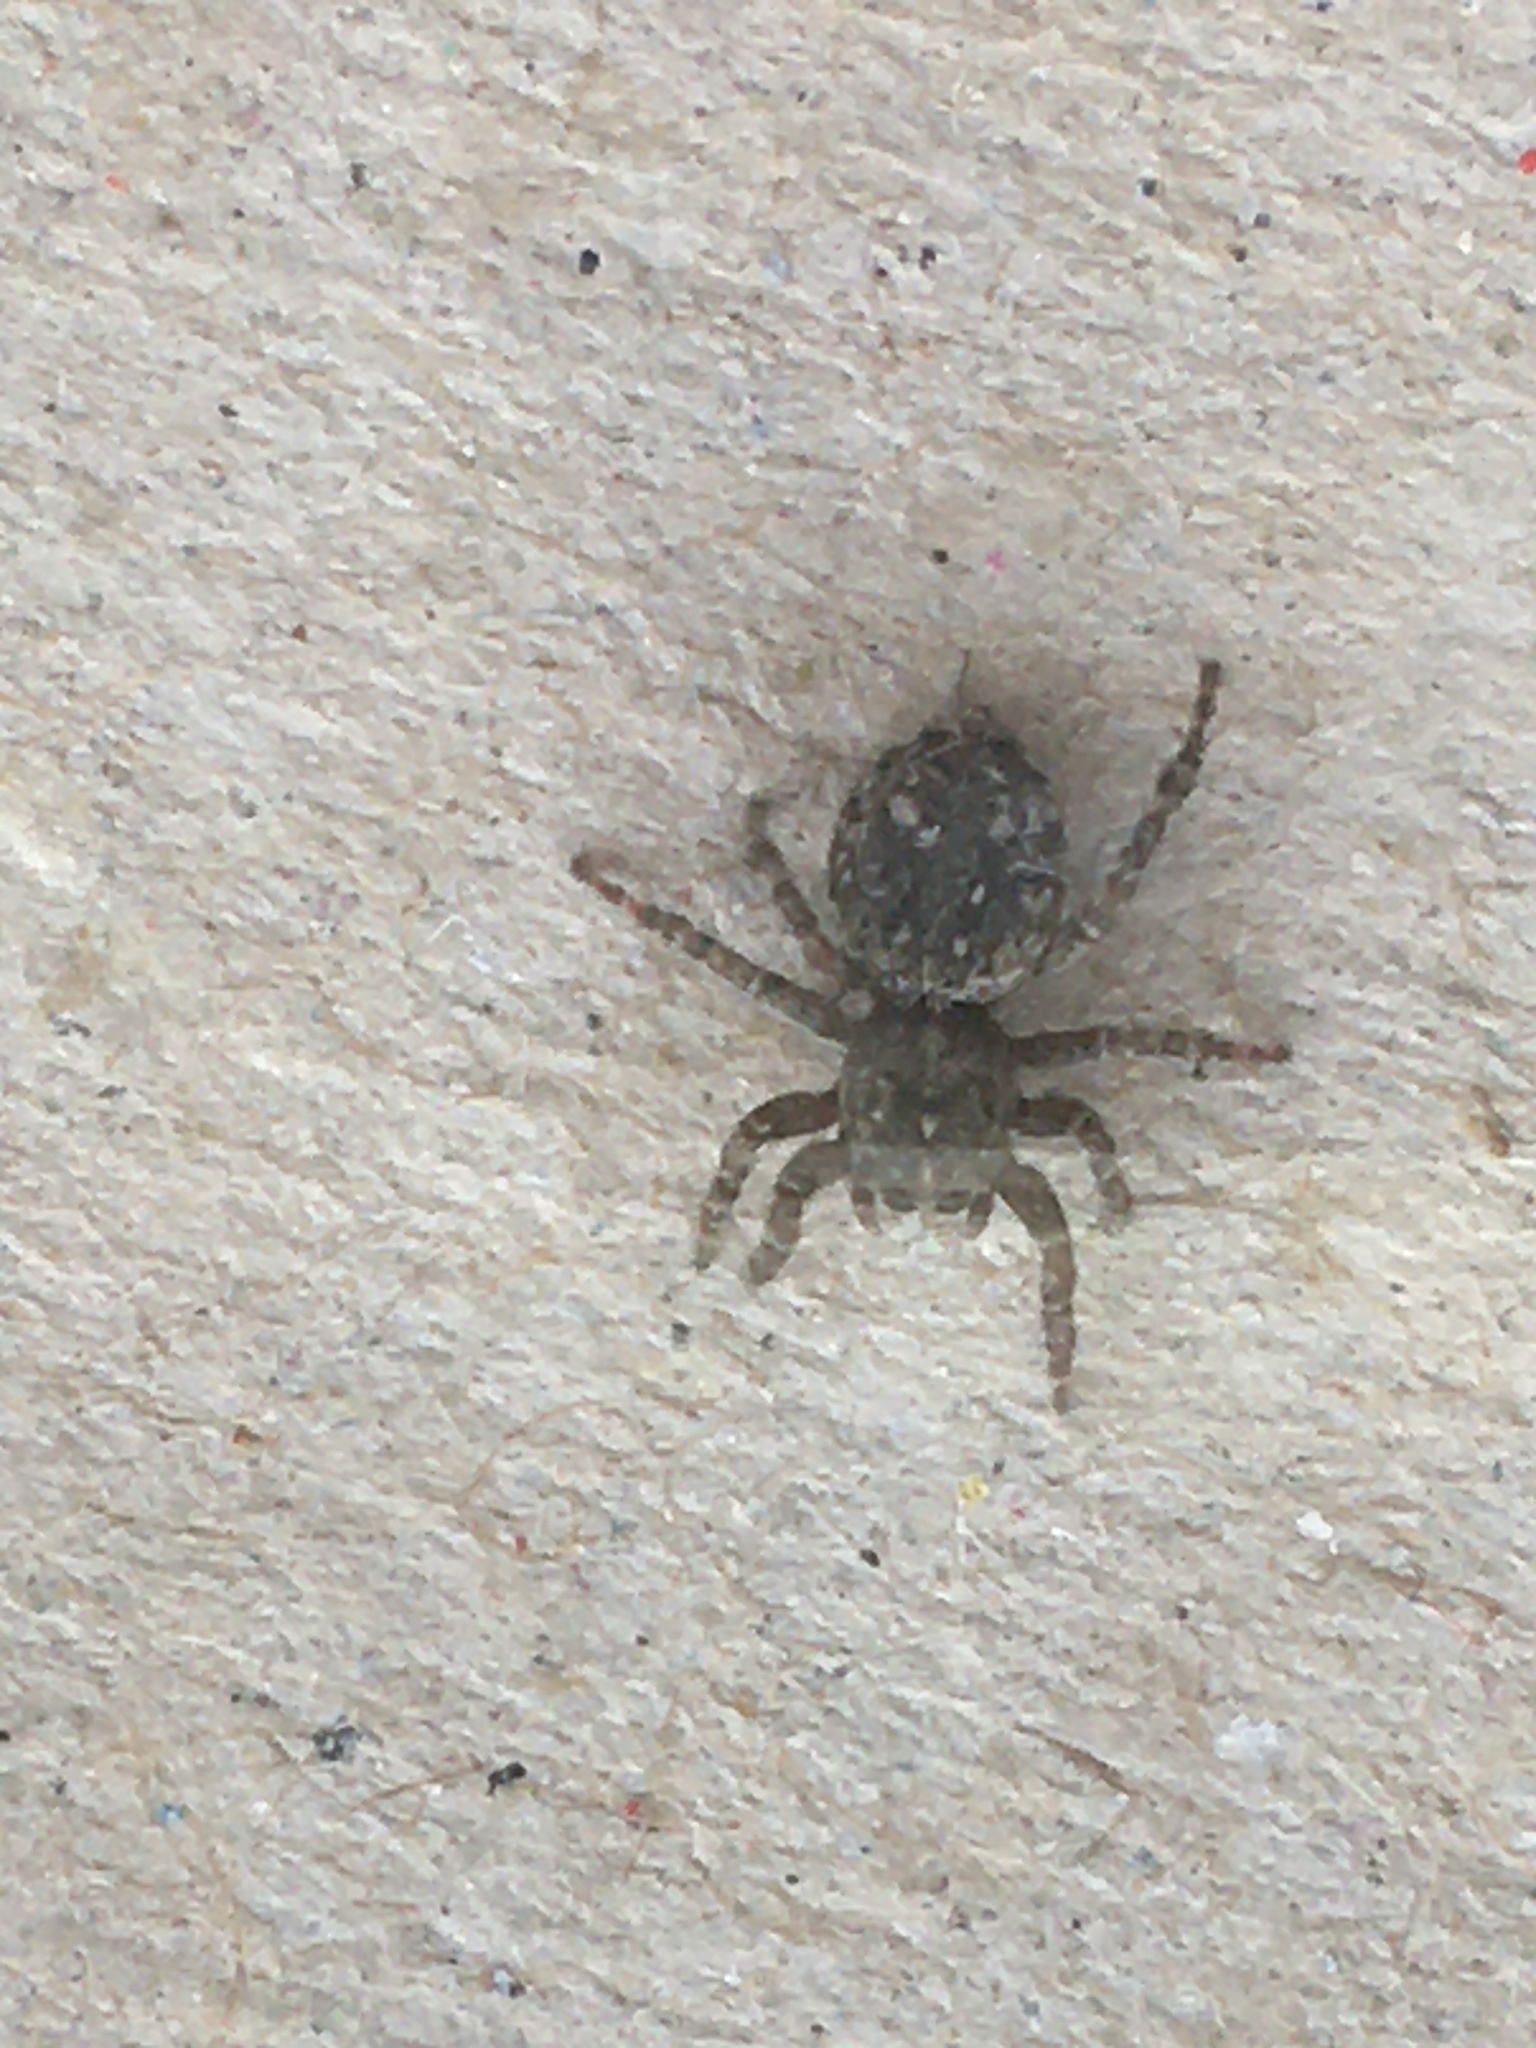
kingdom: Animalia
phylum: Arthropoda
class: Arachnida
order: Araneae
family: Salticidae
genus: Attulus
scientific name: Attulus pubescens
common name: Jumping spider
